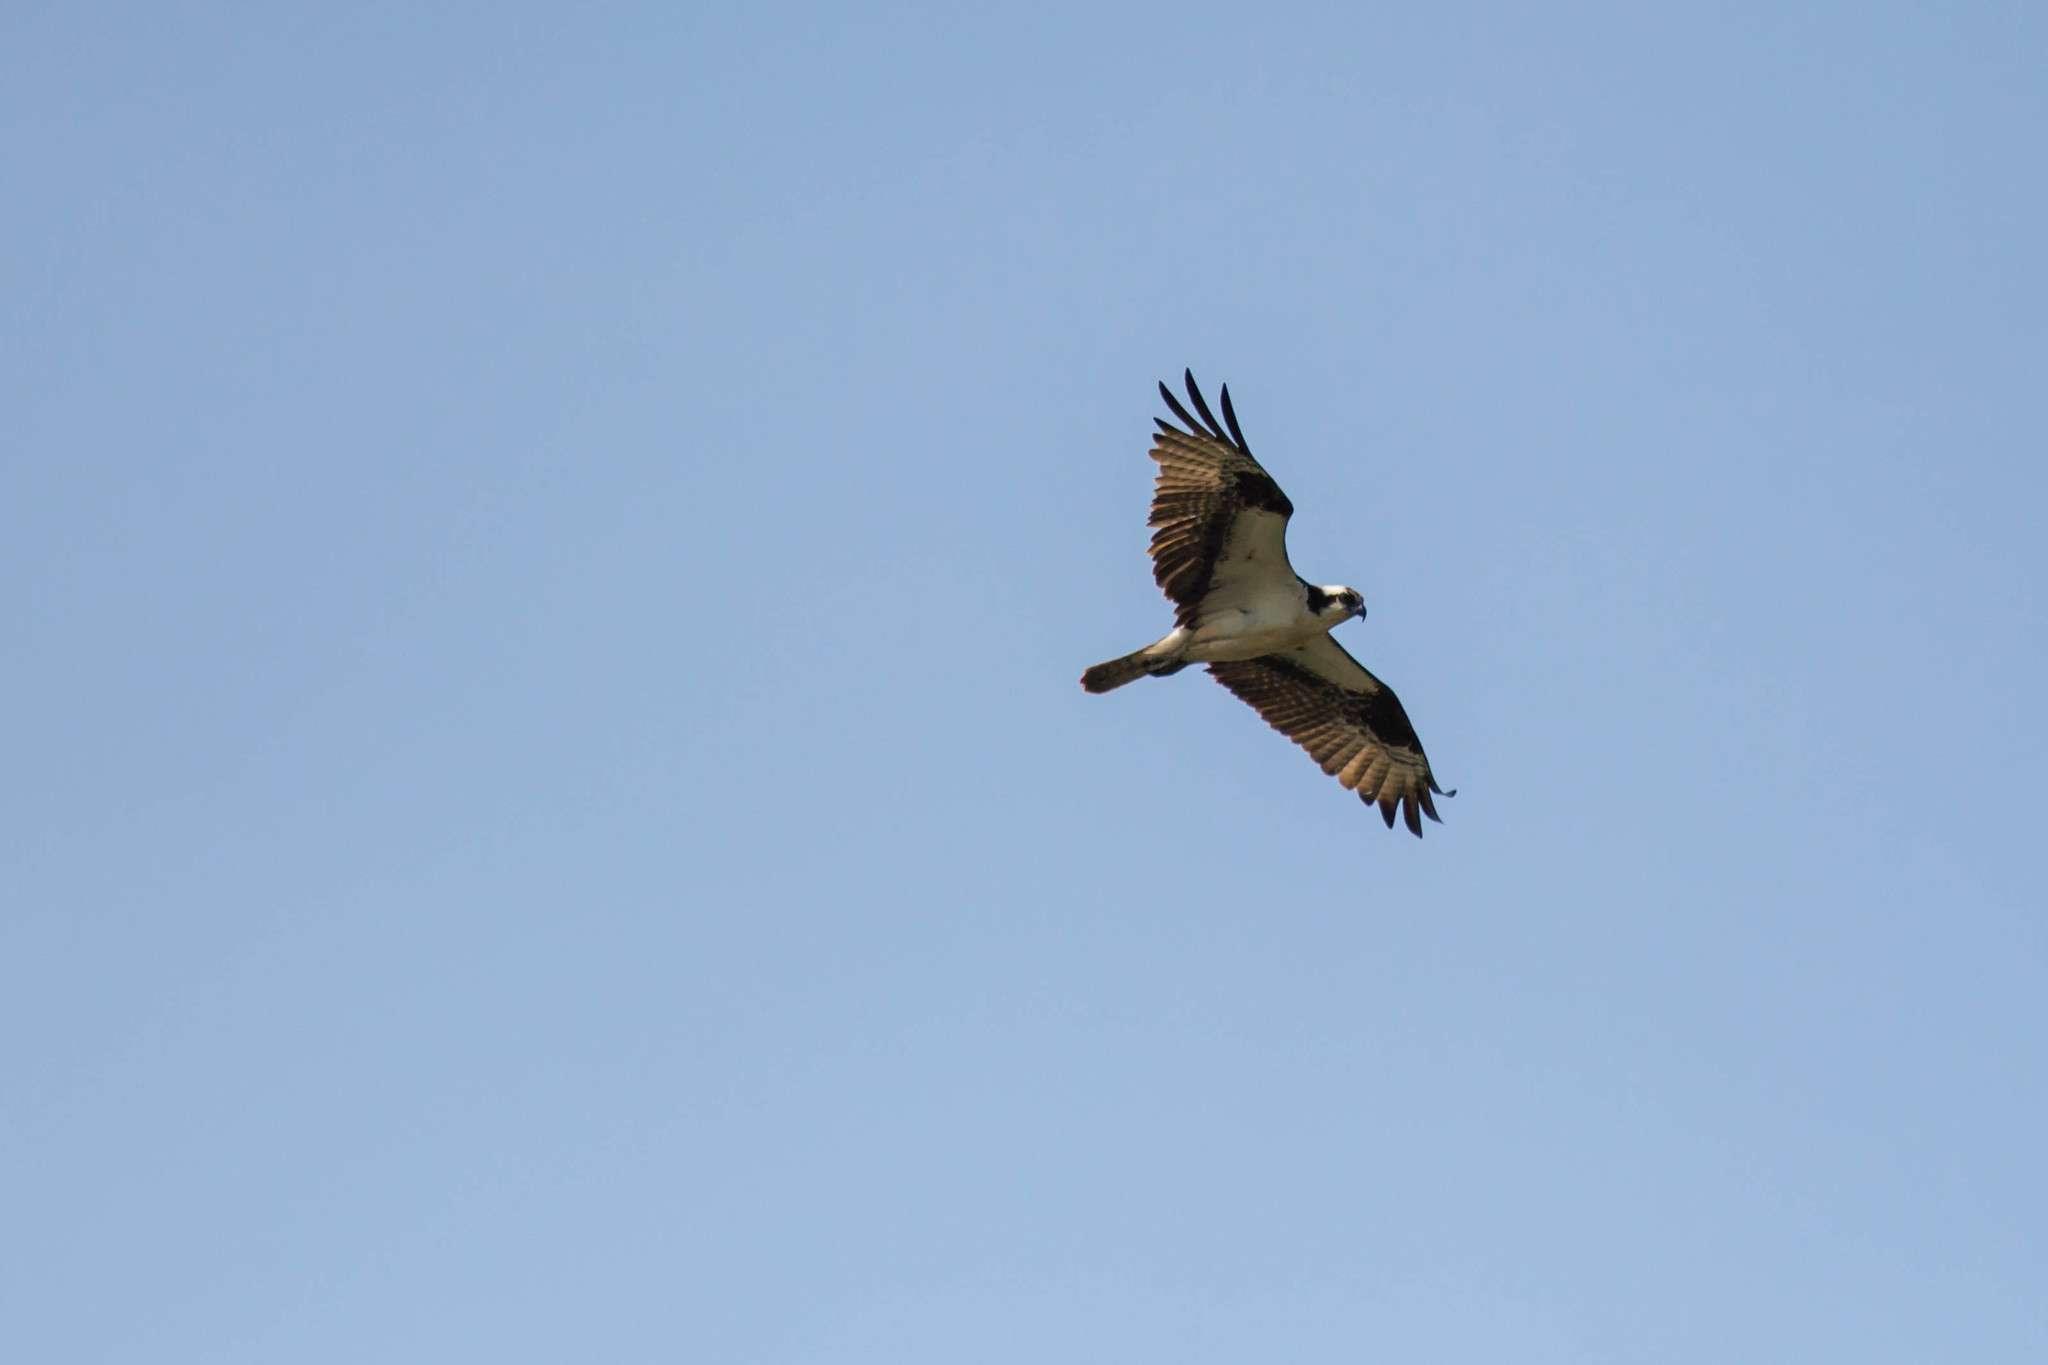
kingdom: Animalia
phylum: Chordata
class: Aves
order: Accipitriformes
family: Pandionidae
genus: Pandion
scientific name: Pandion haliaetus
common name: Osprey
